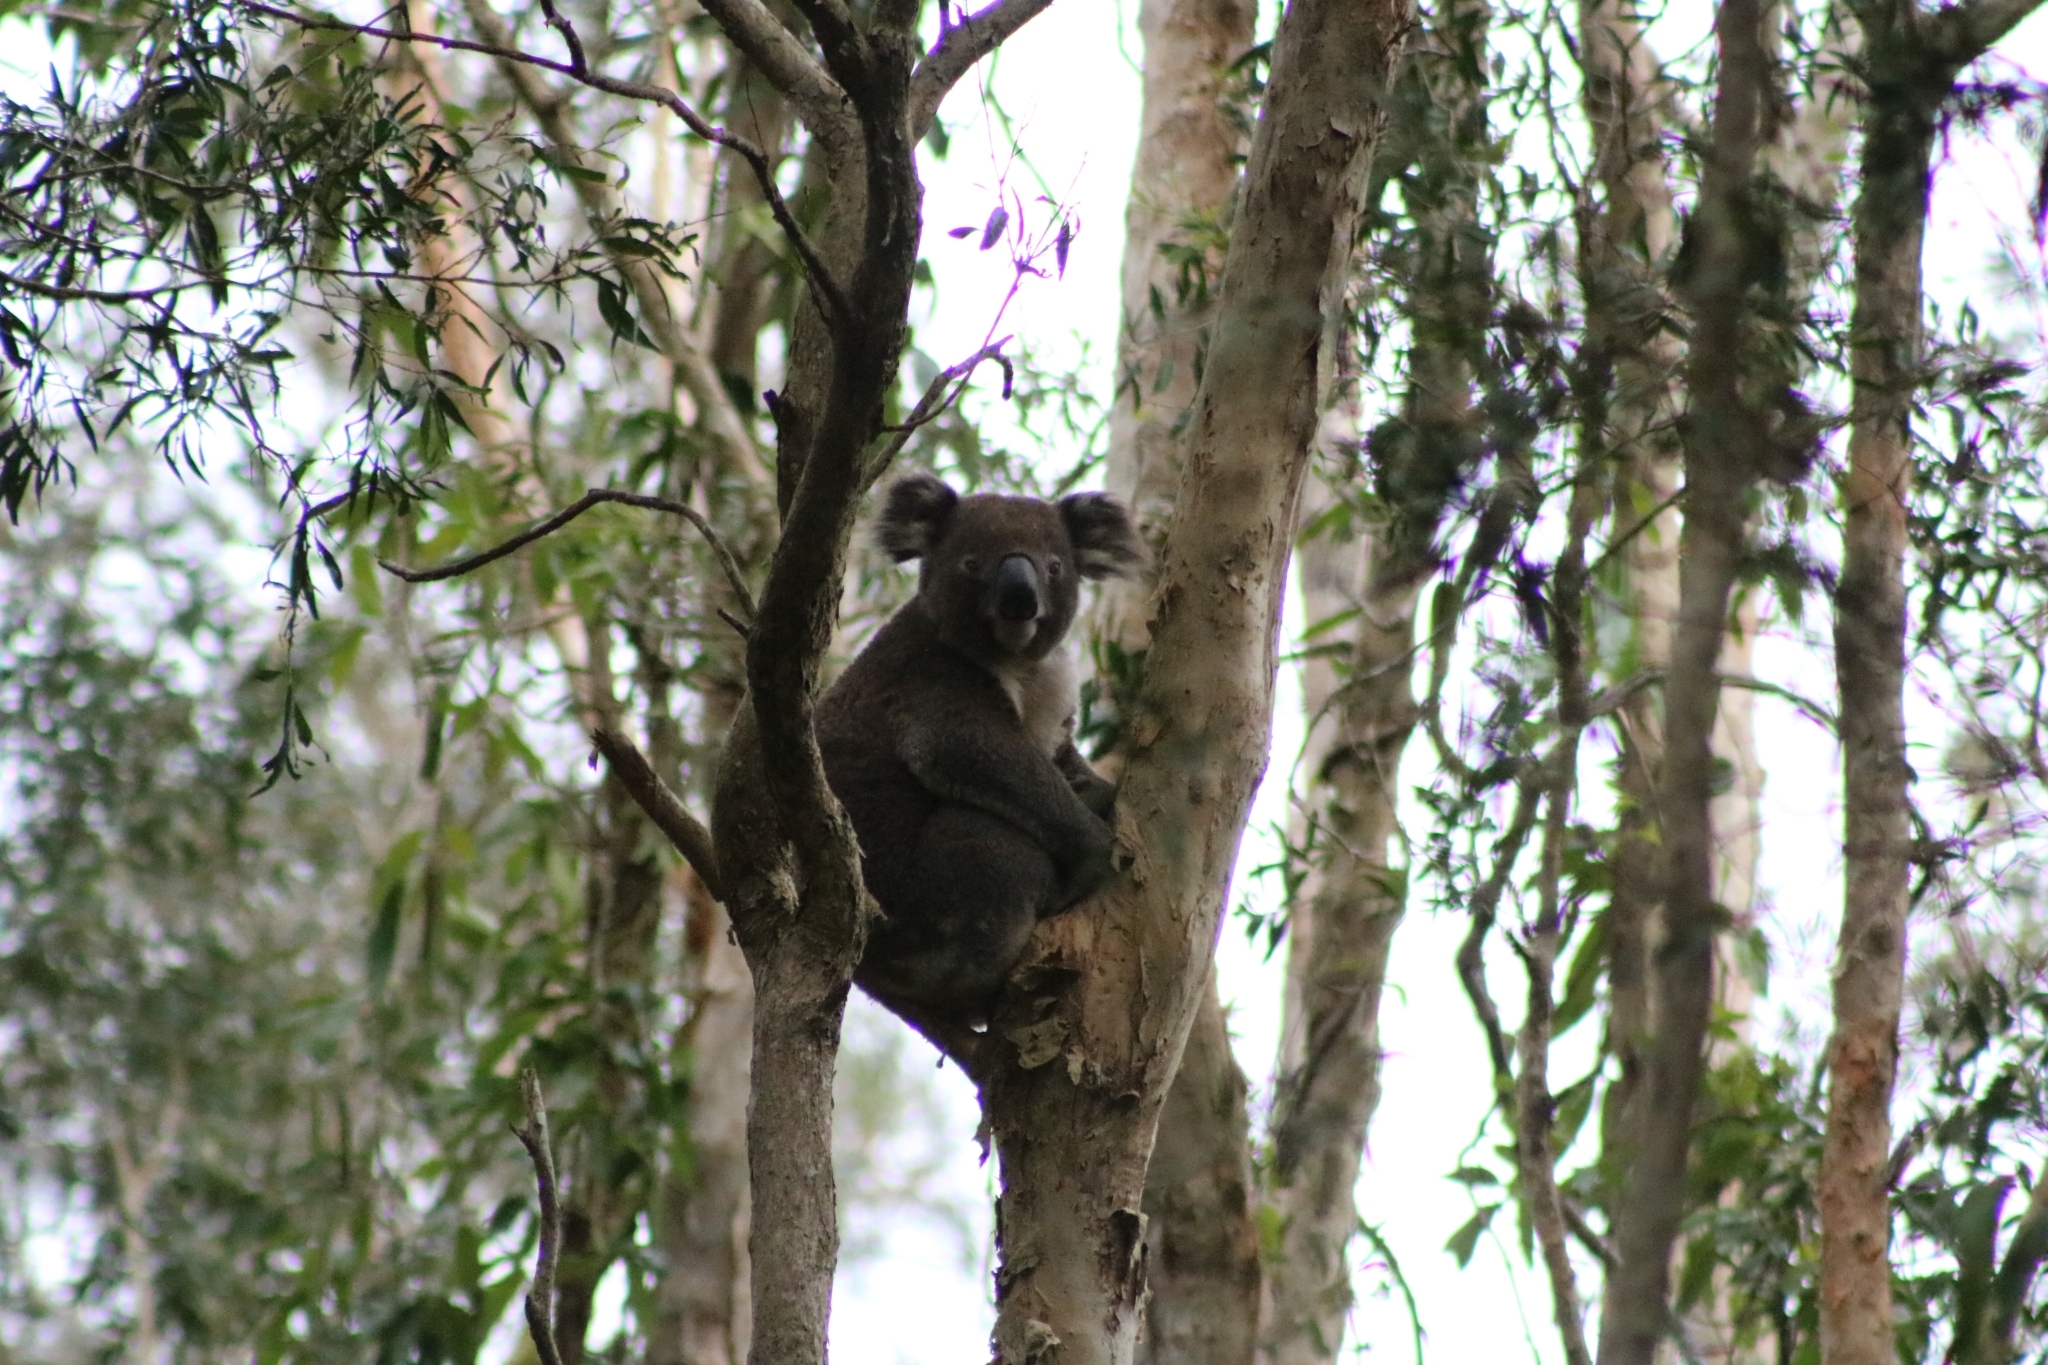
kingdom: Animalia
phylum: Chordata
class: Mammalia
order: Diprotodontia
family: Phascolarctidae
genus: Phascolarctos
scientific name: Phascolarctos cinereus
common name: Koala
